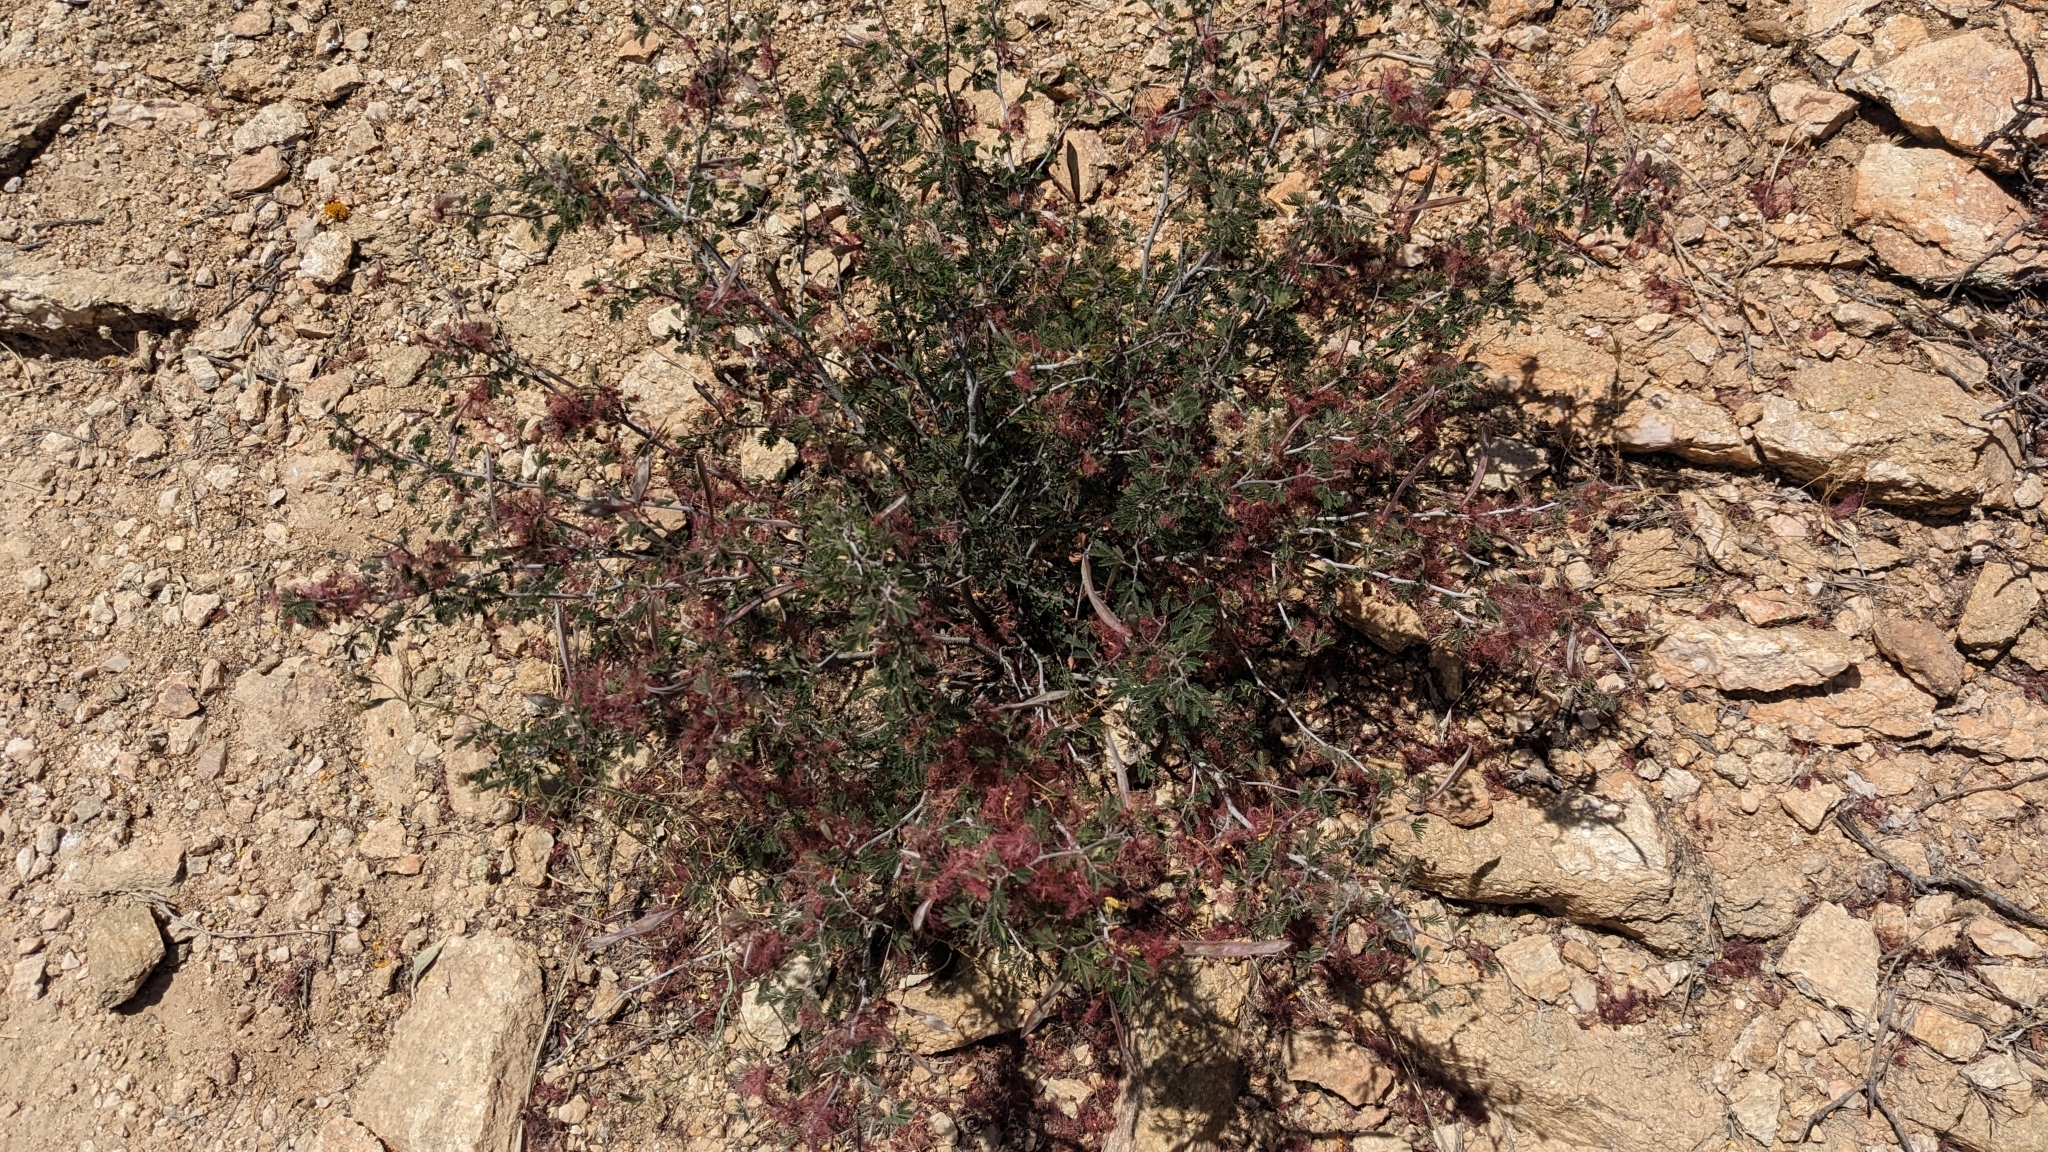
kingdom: Plantae
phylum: Tracheophyta
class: Magnoliopsida
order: Fabales
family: Fabaceae
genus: Calliandra
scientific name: Calliandra eriophylla
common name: Fairy-duster
